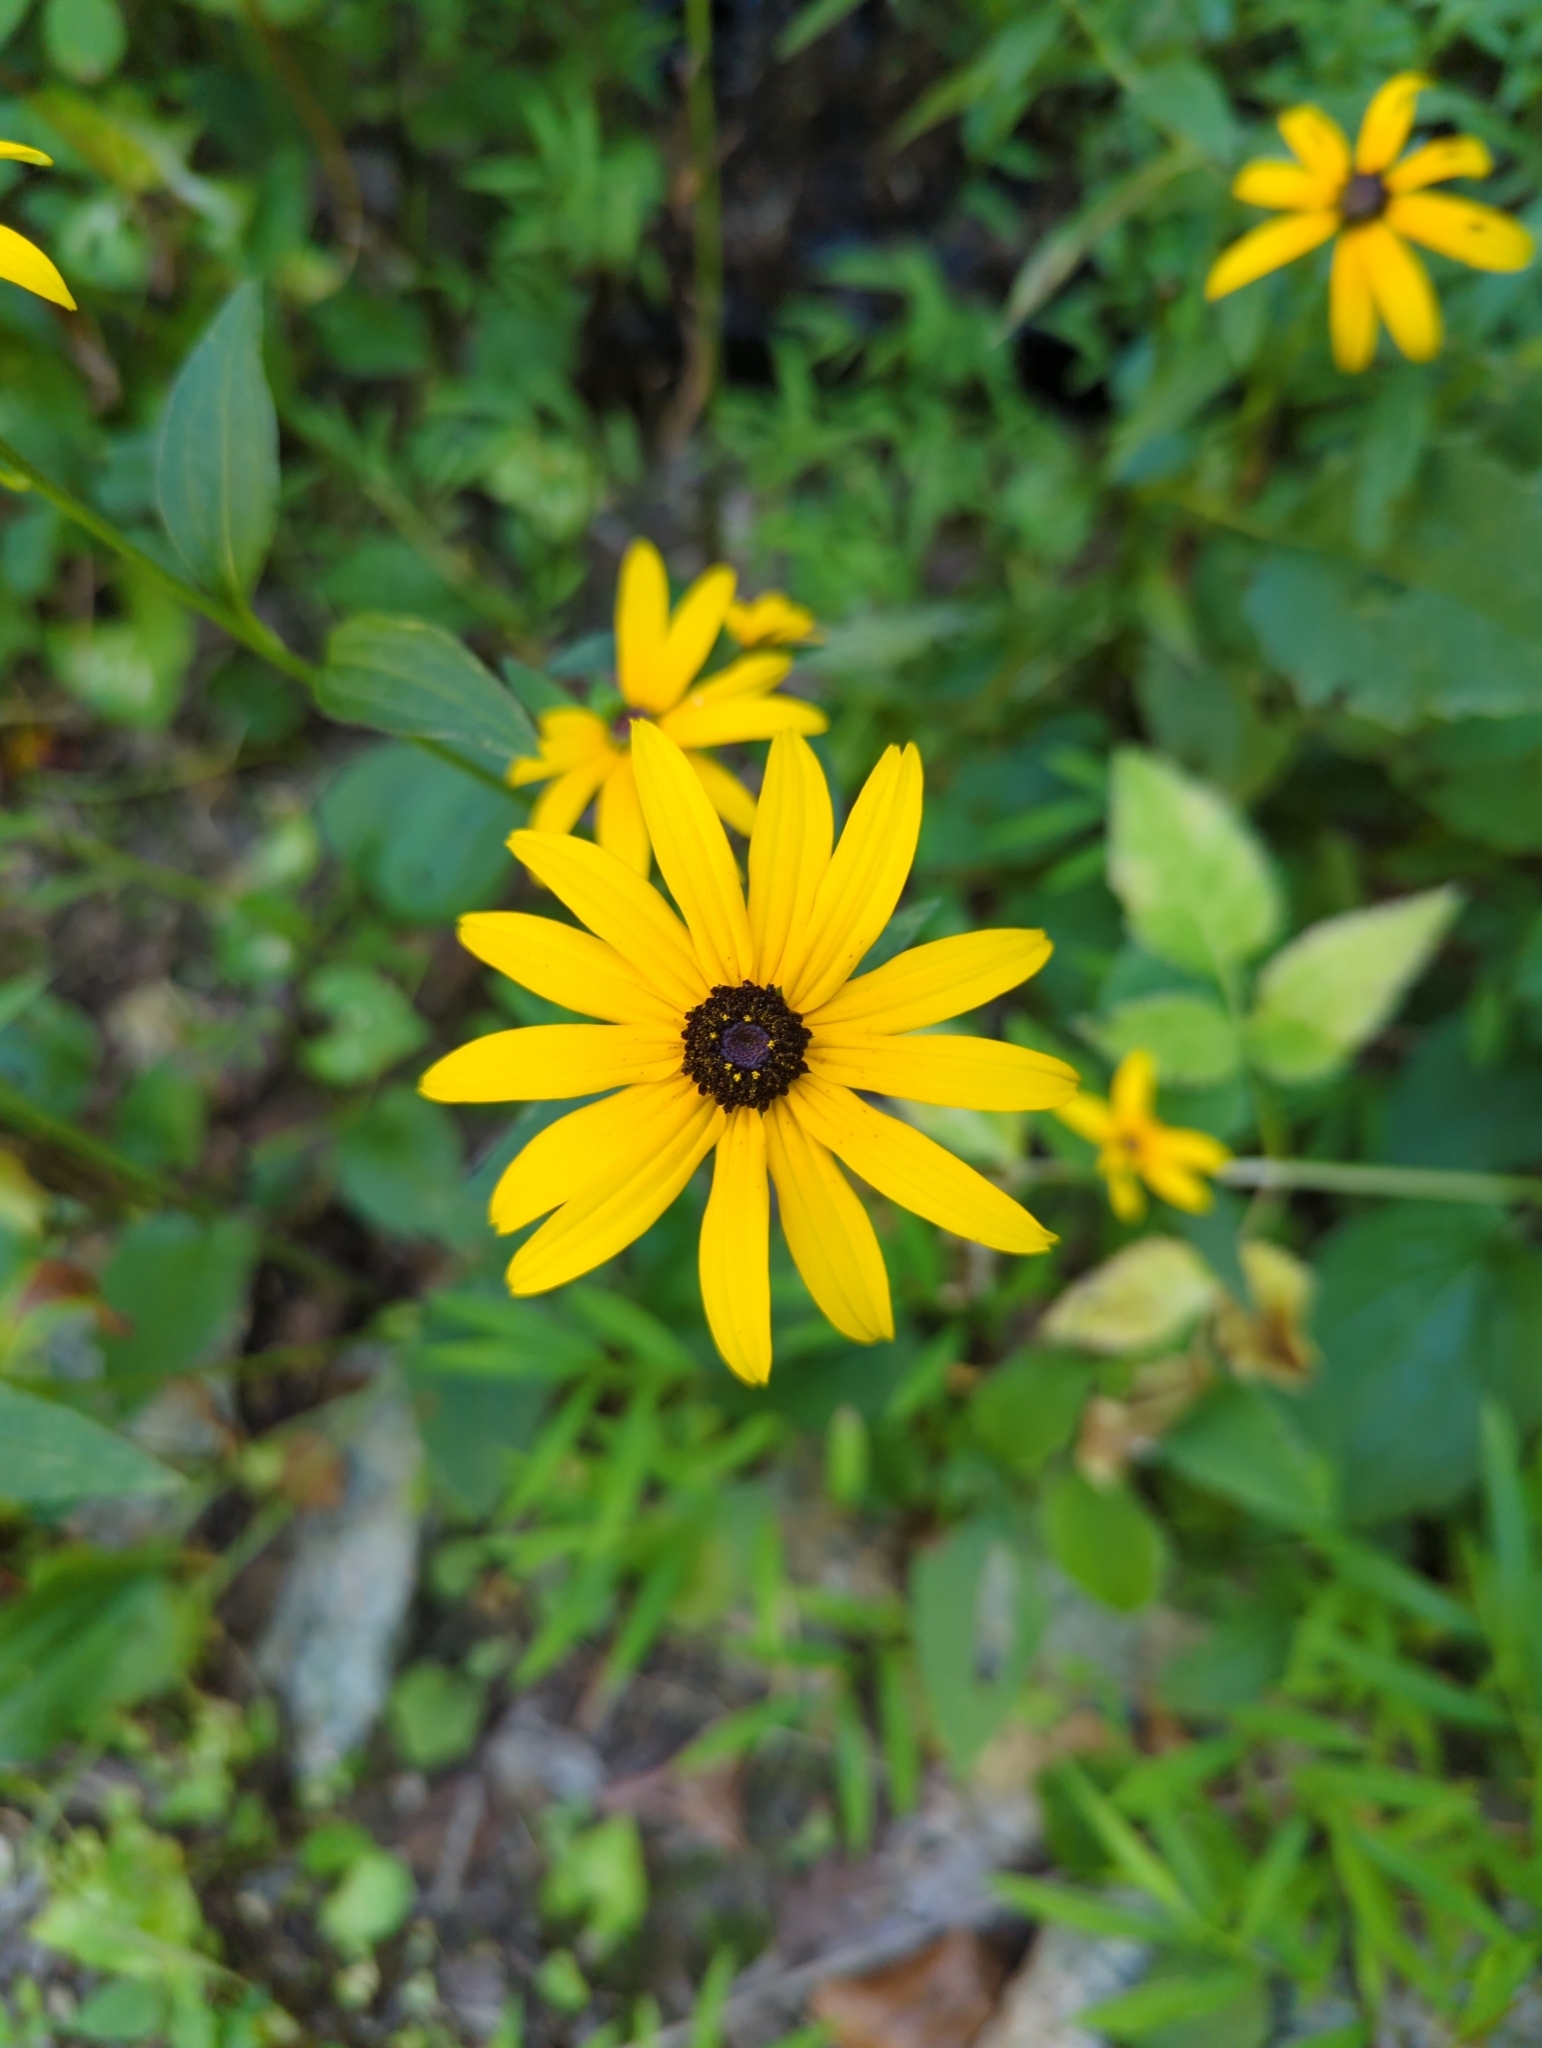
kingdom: Plantae
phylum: Tracheophyta
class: Magnoliopsida
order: Asterales
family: Asteraceae
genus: Rudbeckia
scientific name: Rudbeckia hirta
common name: Black-eyed-susan
